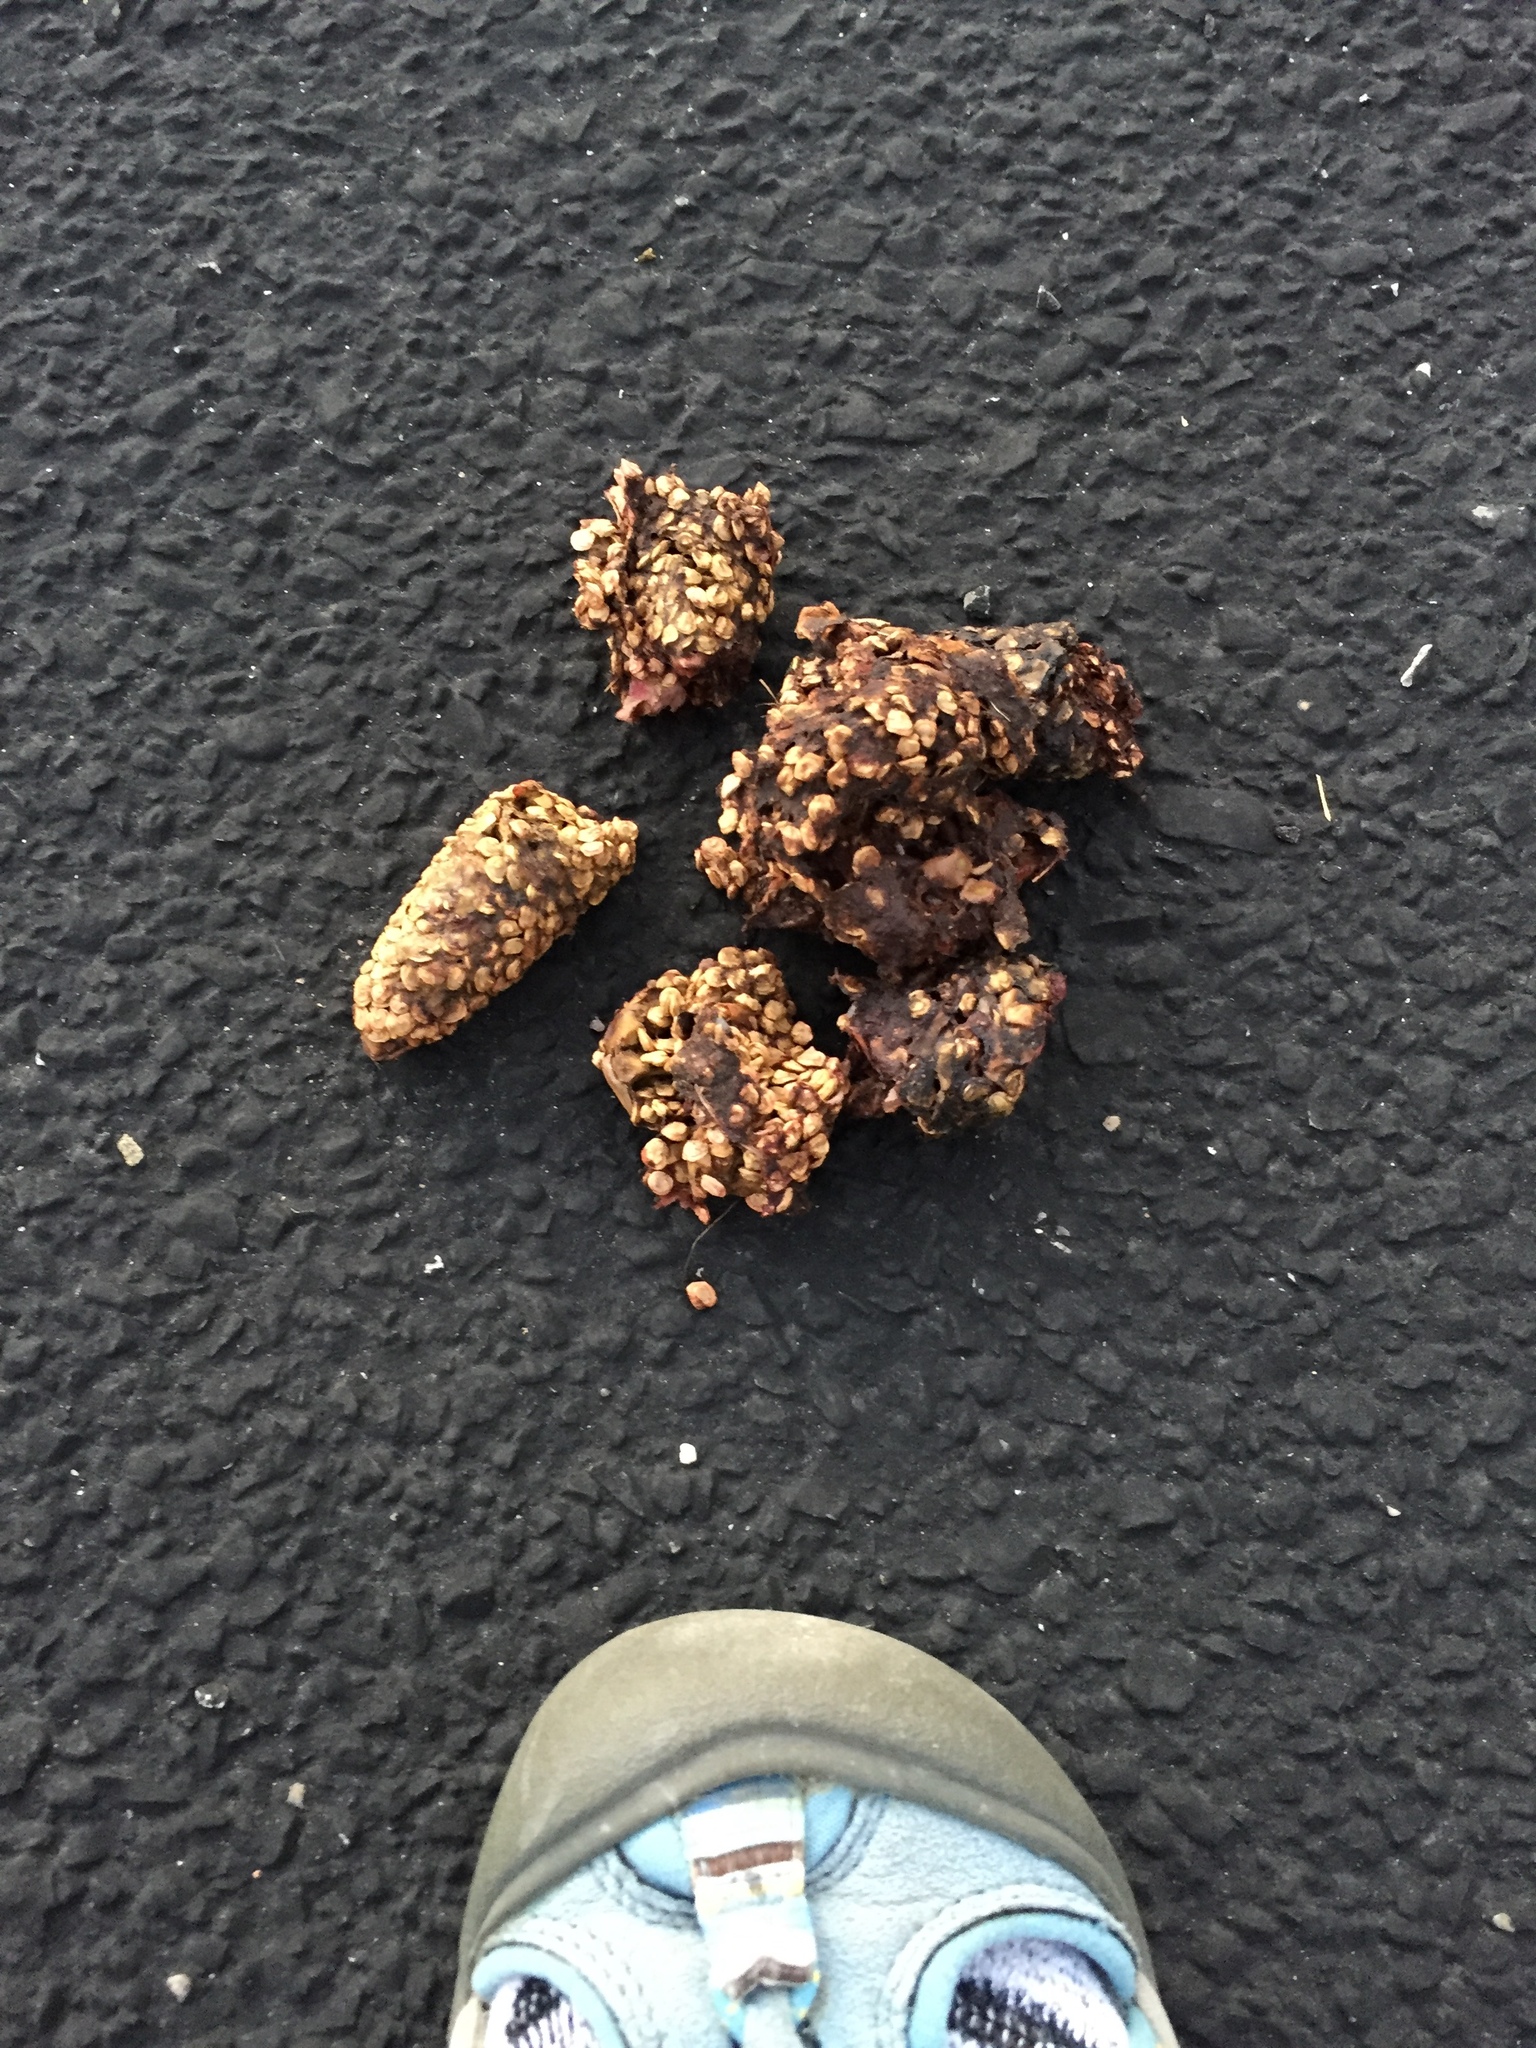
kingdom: Animalia
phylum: Chordata
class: Mammalia
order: Carnivora
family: Ursidae
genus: Ursus
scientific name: Ursus americanus
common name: American black bear
